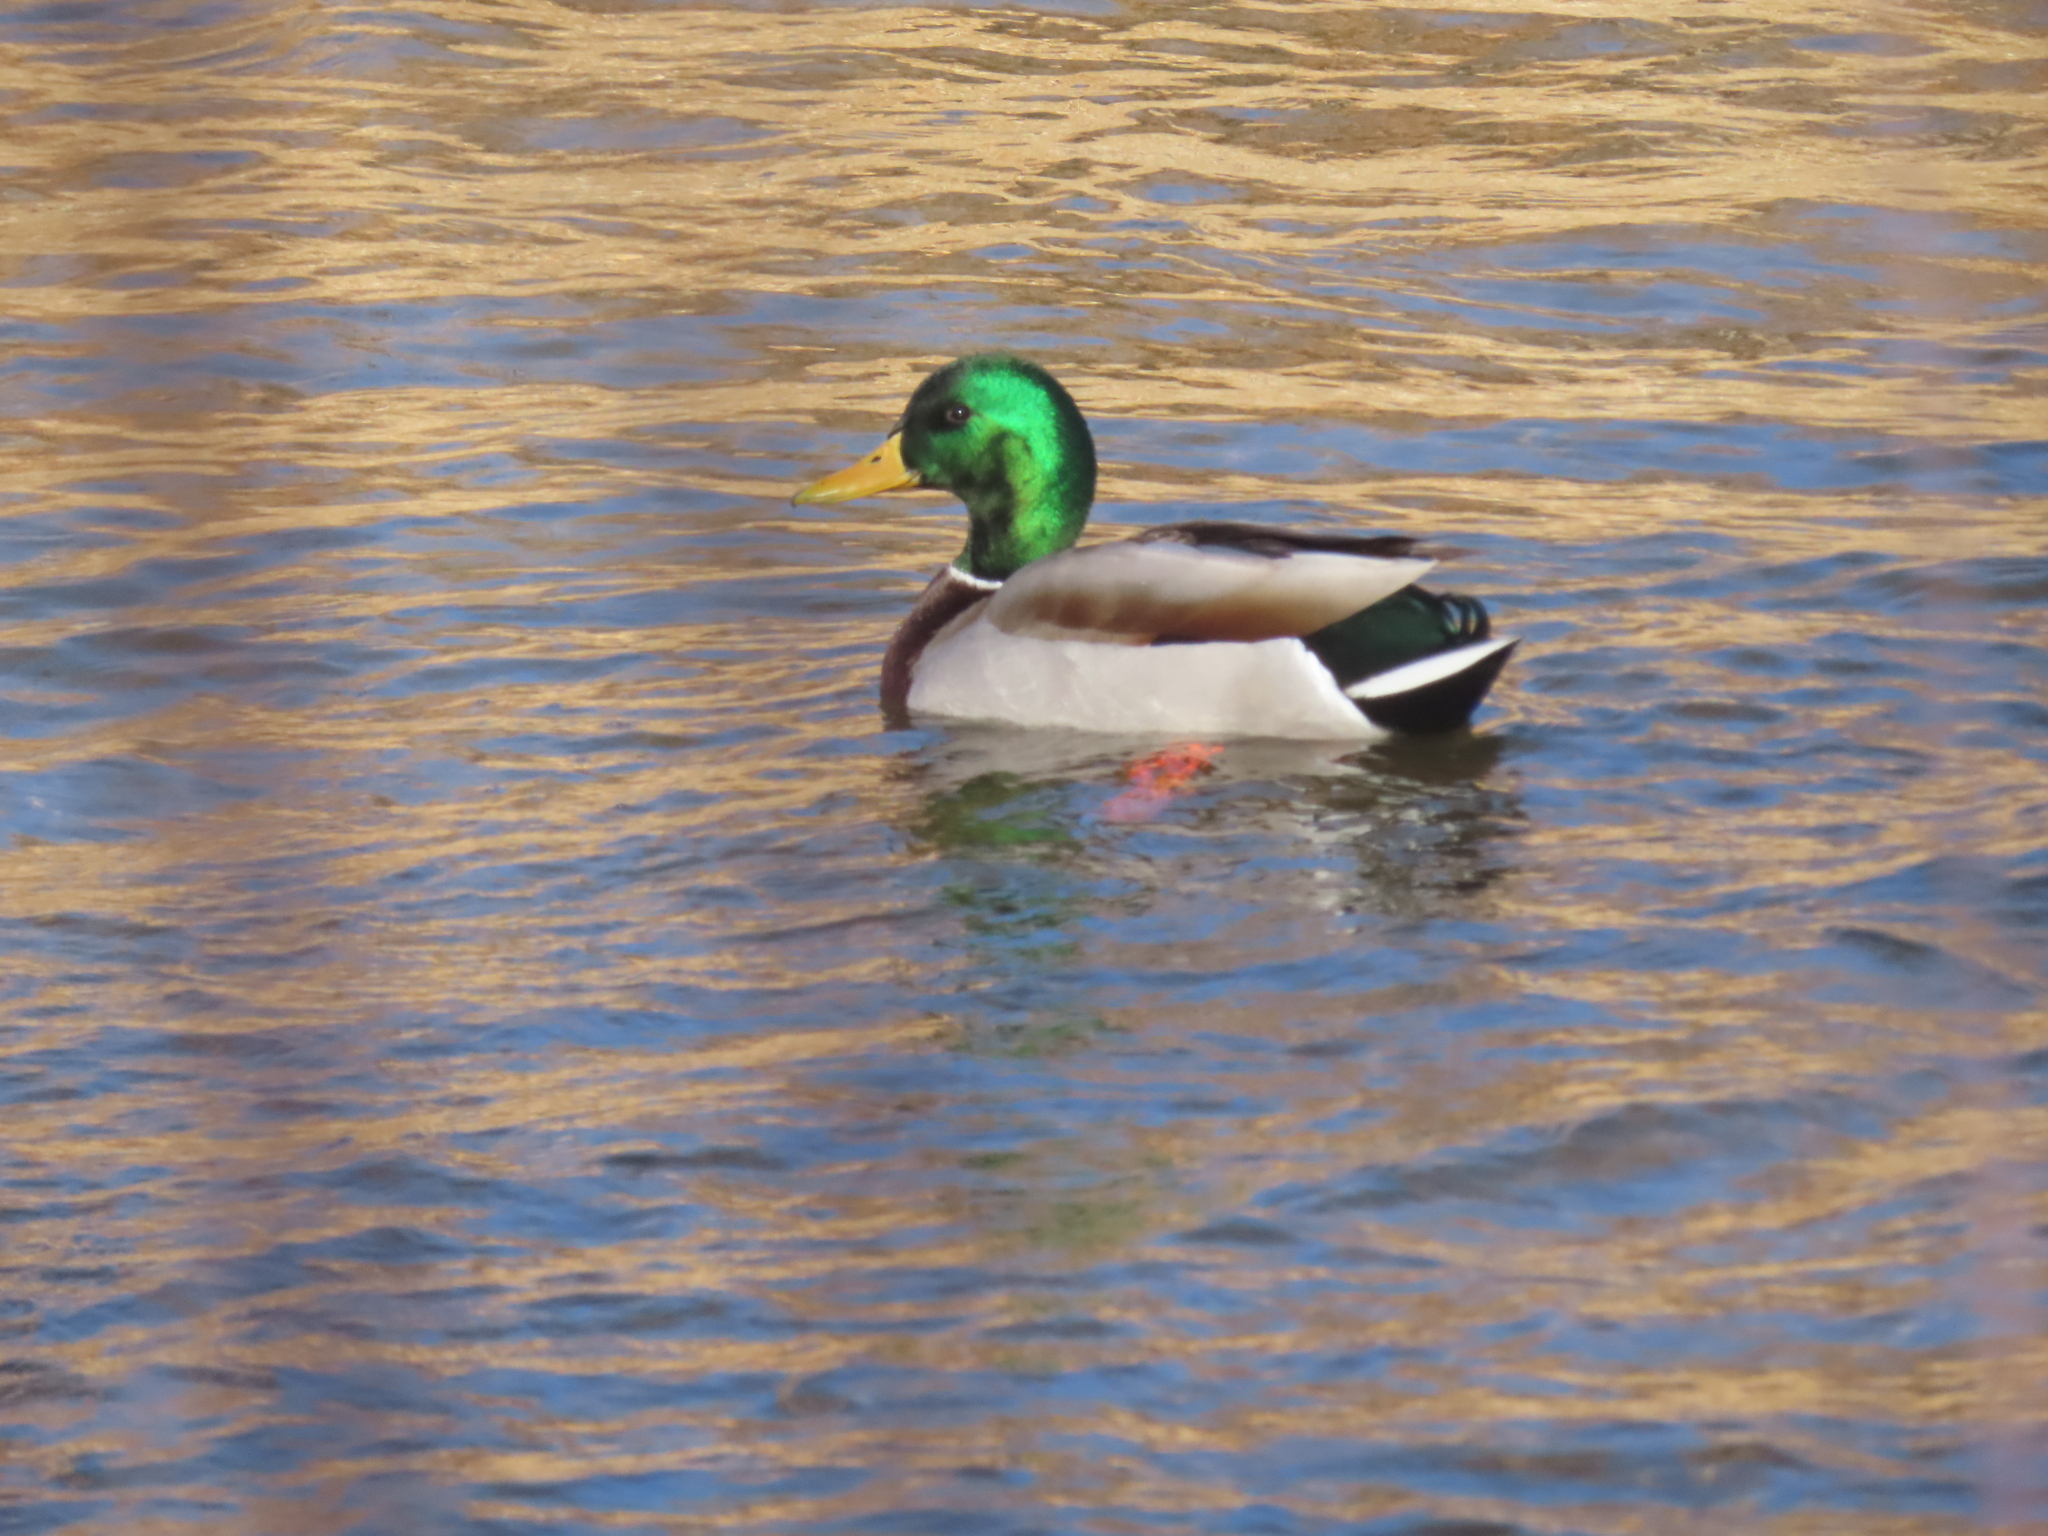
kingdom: Animalia
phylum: Chordata
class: Aves
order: Anseriformes
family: Anatidae
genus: Anas
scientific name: Anas platyrhynchos
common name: Mallard
